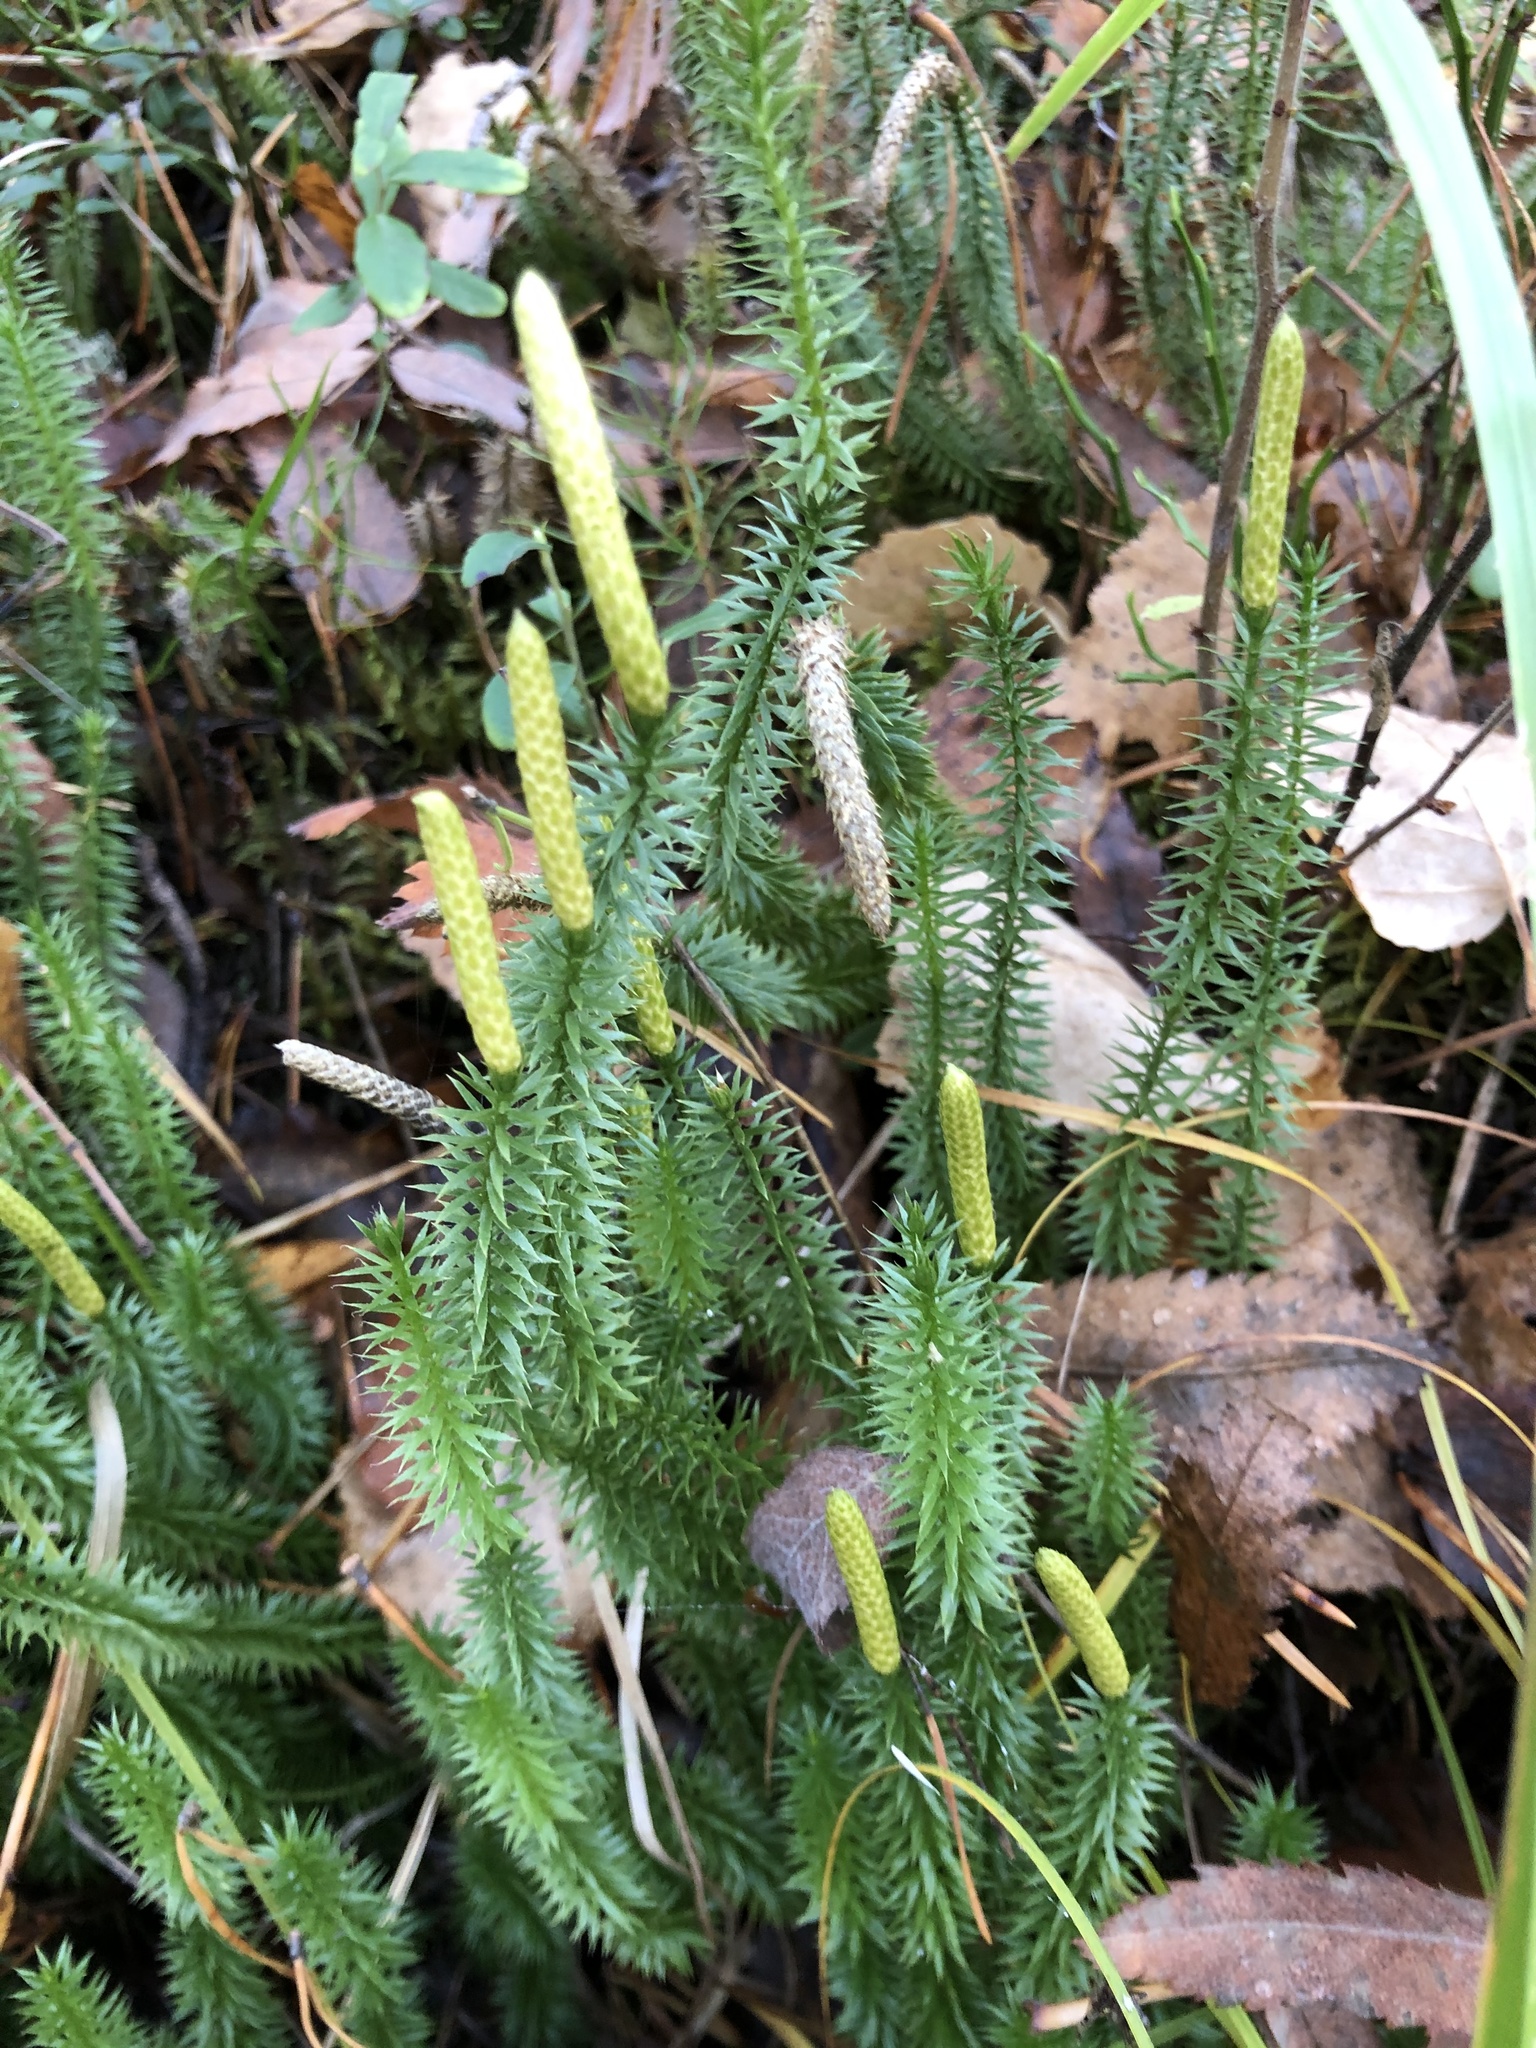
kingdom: Plantae
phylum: Tracheophyta
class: Lycopodiopsida
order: Lycopodiales
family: Lycopodiaceae
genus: Spinulum
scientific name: Spinulum annotinum
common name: Interrupted club-moss
